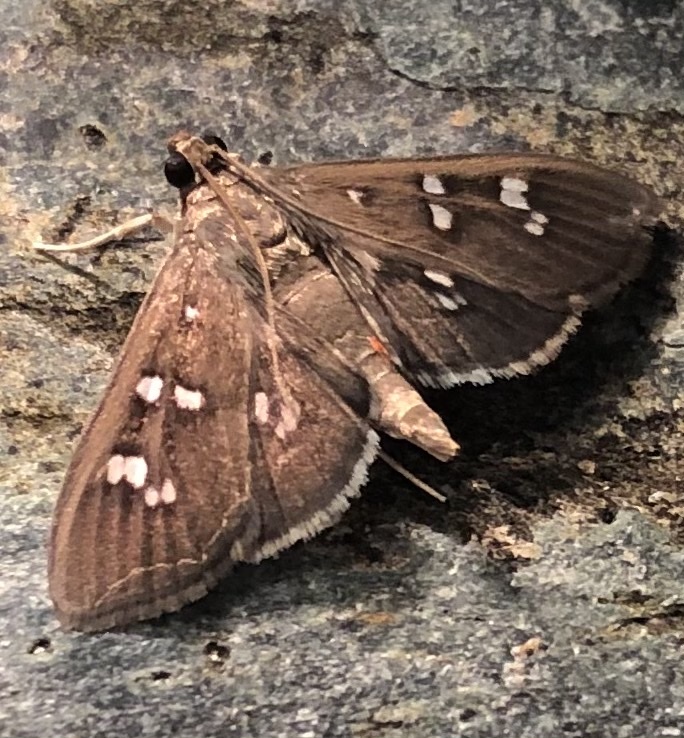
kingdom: Animalia
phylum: Arthropoda
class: Insecta
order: Lepidoptera
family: Crambidae
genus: Microthyris
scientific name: Microthyris prolongalis
